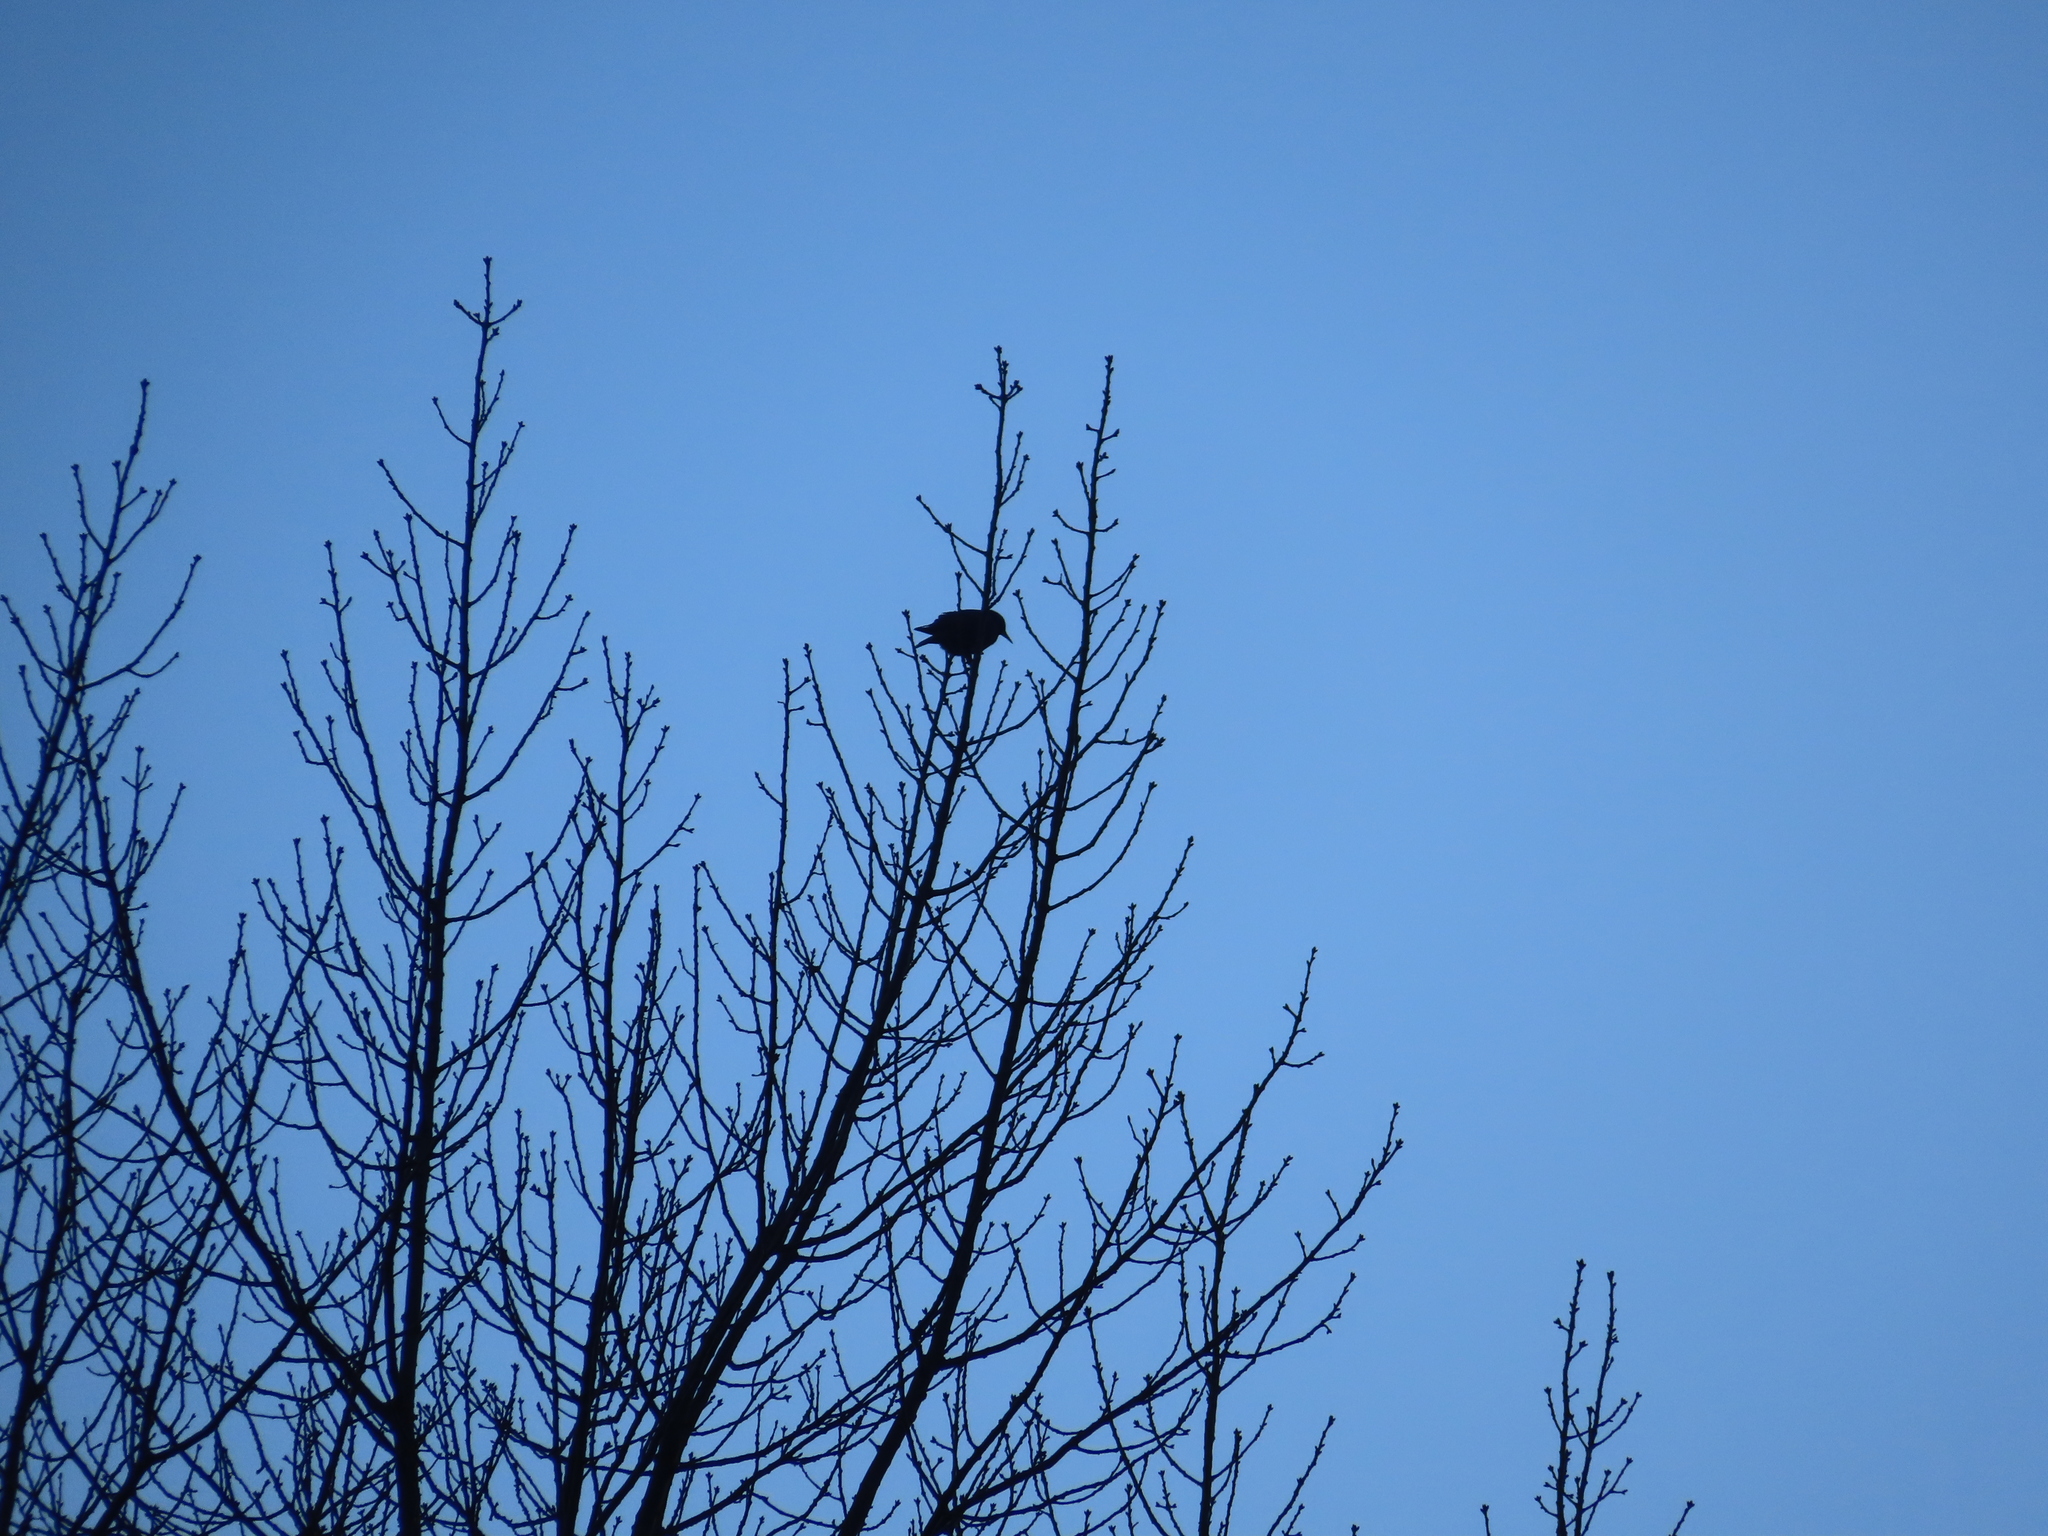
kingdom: Animalia
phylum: Chordata
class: Aves
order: Passeriformes
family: Sturnidae
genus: Sturnus
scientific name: Sturnus vulgaris
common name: Common starling
